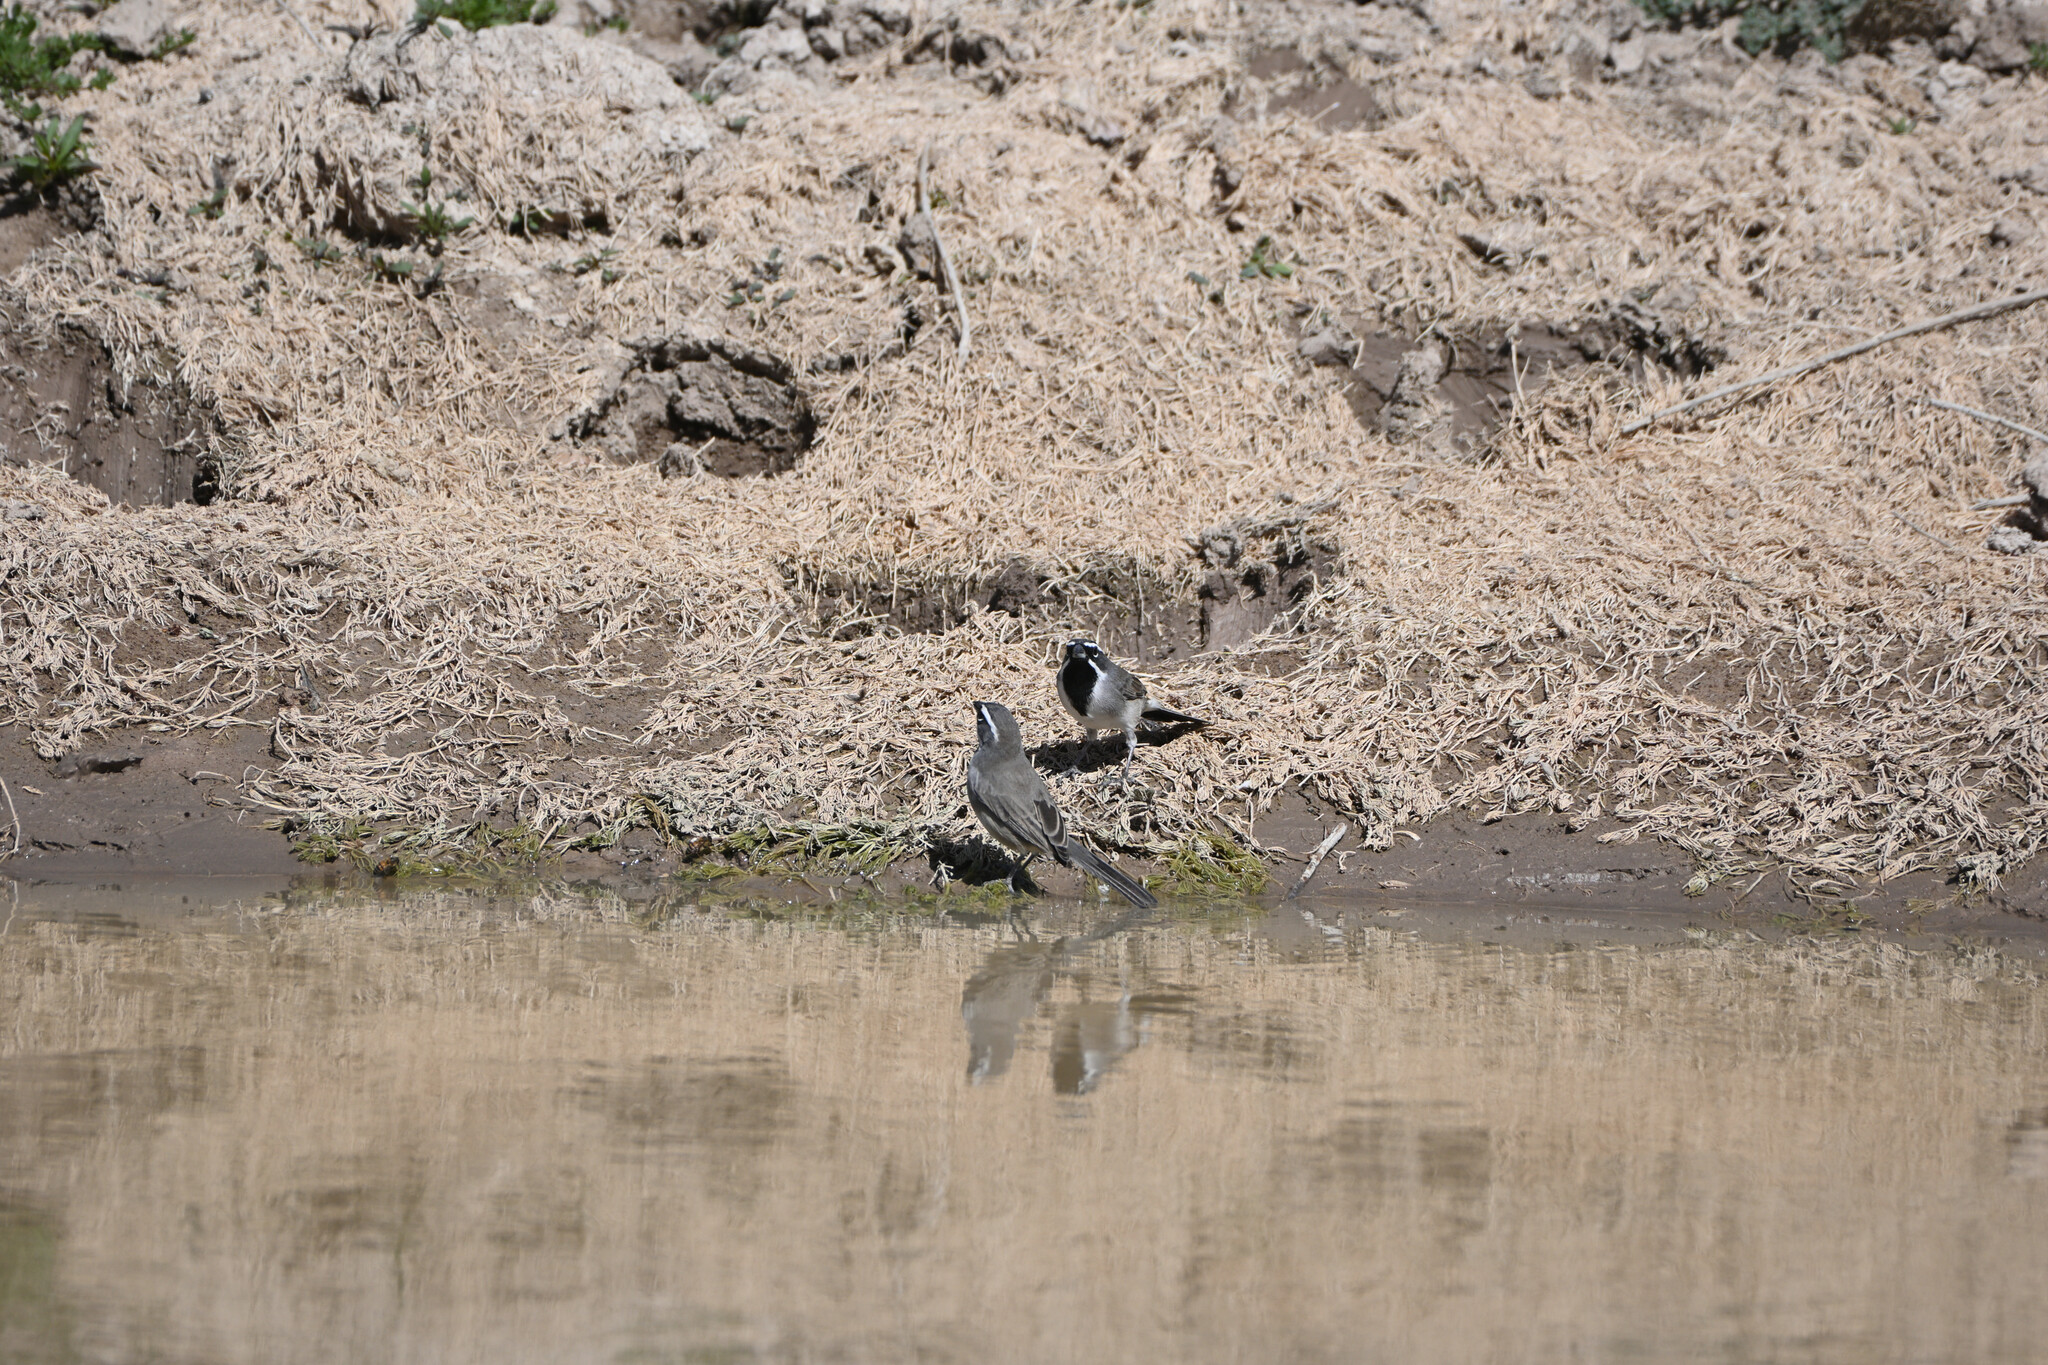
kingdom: Animalia
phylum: Chordata
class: Aves
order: Passeriformes
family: Passerellidae
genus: Amphispiza
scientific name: Amphispiza bilineata
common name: Black-throated sparrow
